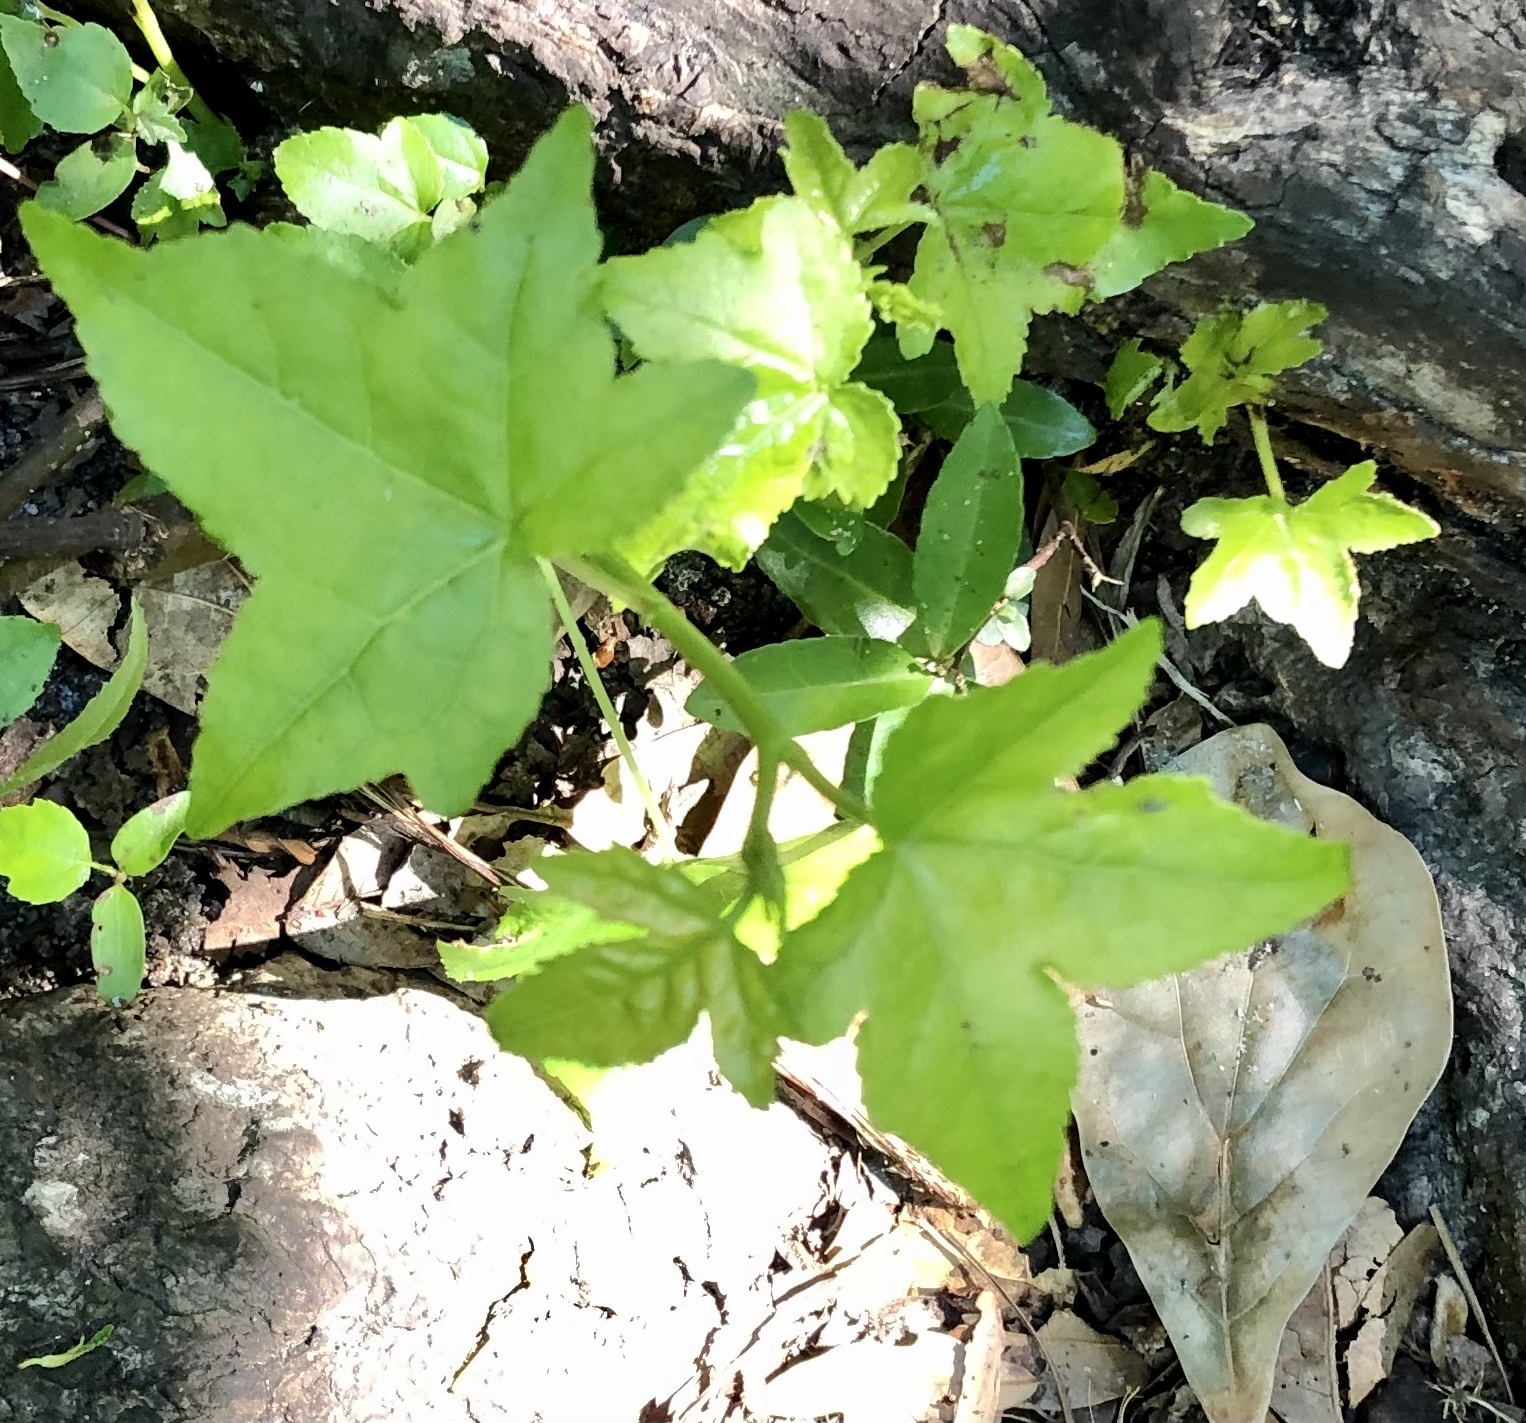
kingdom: Plantae
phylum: Tracheophyta
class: Magnoliopsida
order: Saxifragales
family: Altingiaceae
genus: Liquidambar
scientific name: Liquidambar styraciflua
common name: Sweet gum
